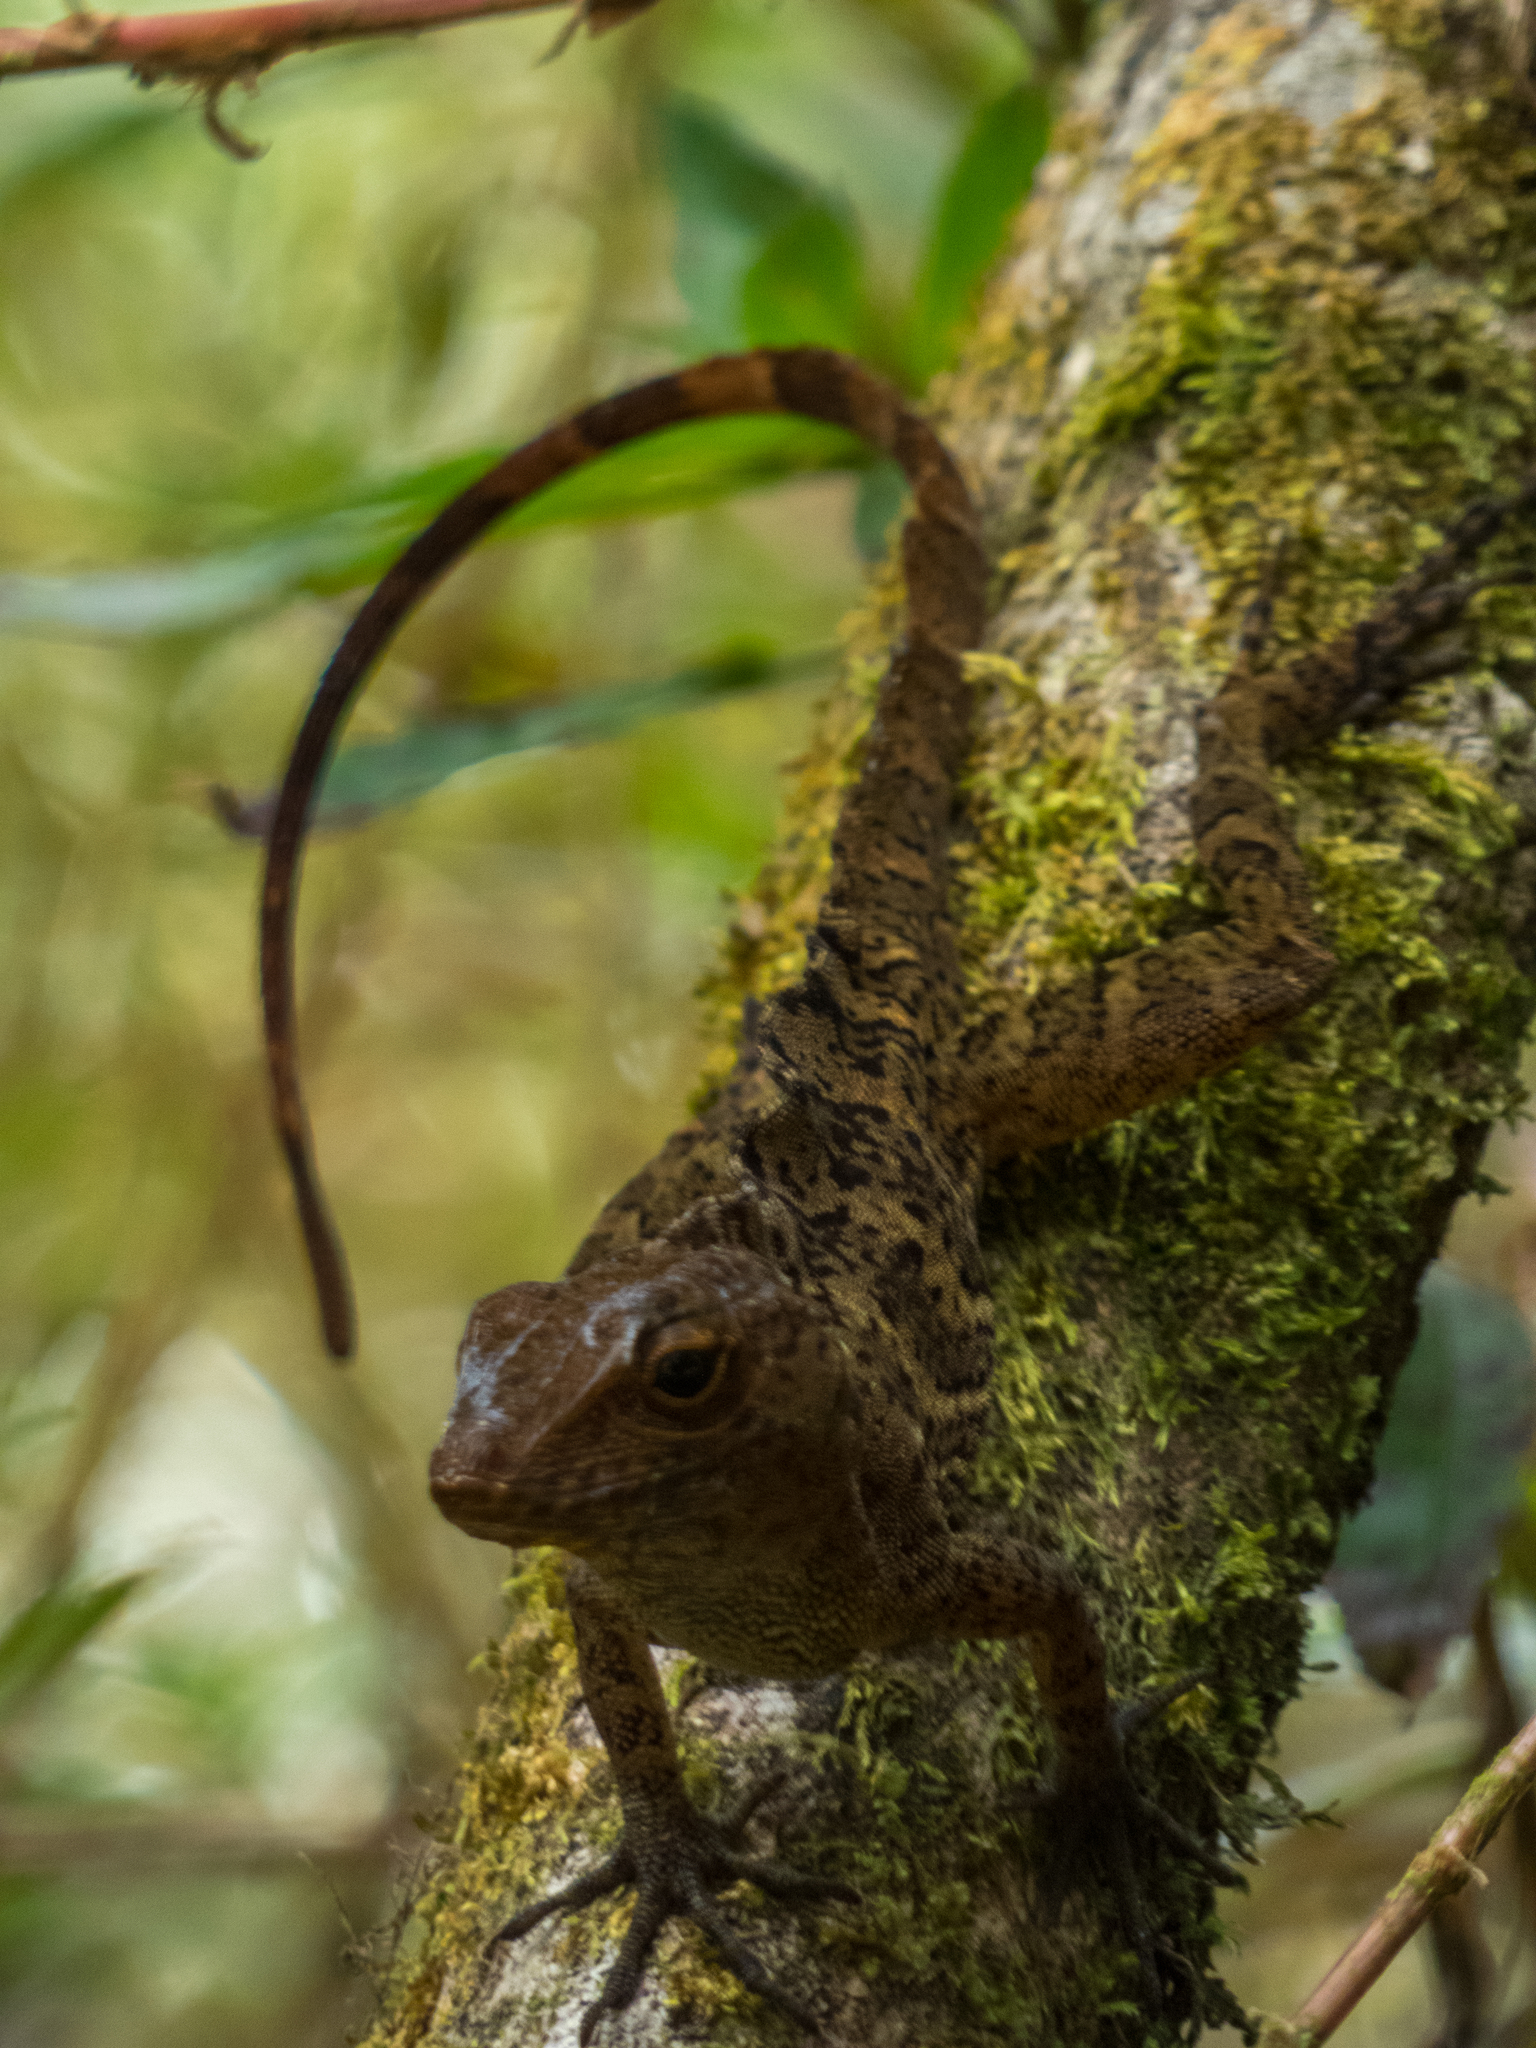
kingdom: Animalia
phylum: Chordata
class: Squamata
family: Dactyloidae
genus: Anolis
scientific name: Anolis cristatellus
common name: Crested anole
